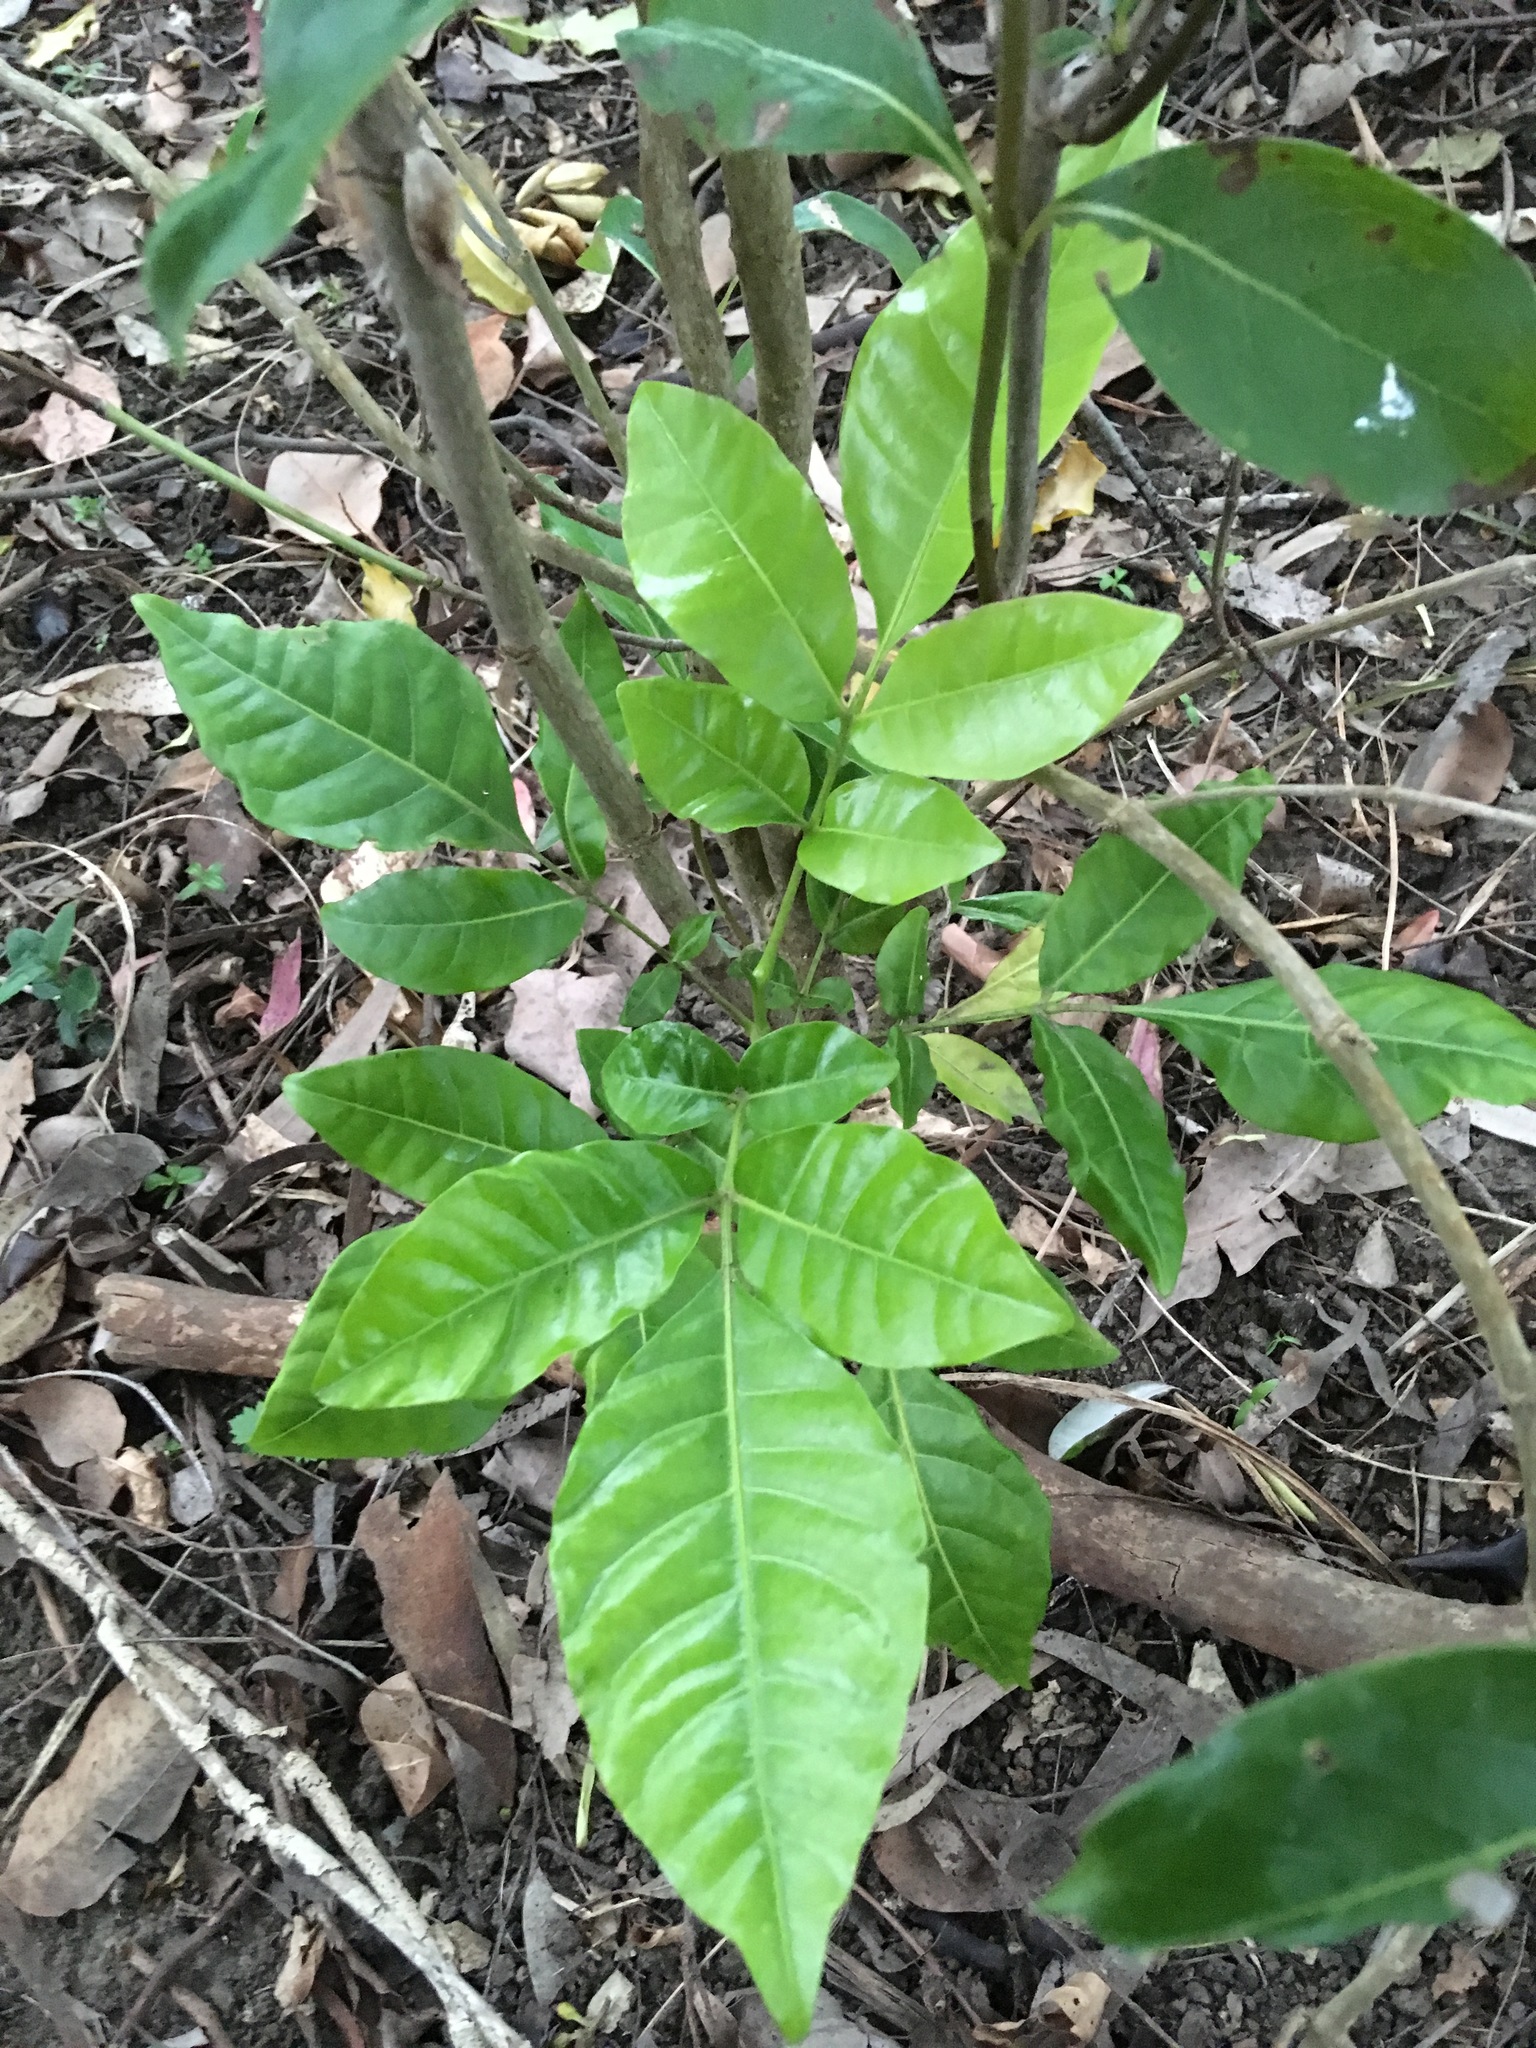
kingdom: Plantae
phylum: Tracheophyta
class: Magnoliopsida
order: Sapindales
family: Meliaceae
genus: Didymocheton
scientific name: Didymocheton spectabilis
